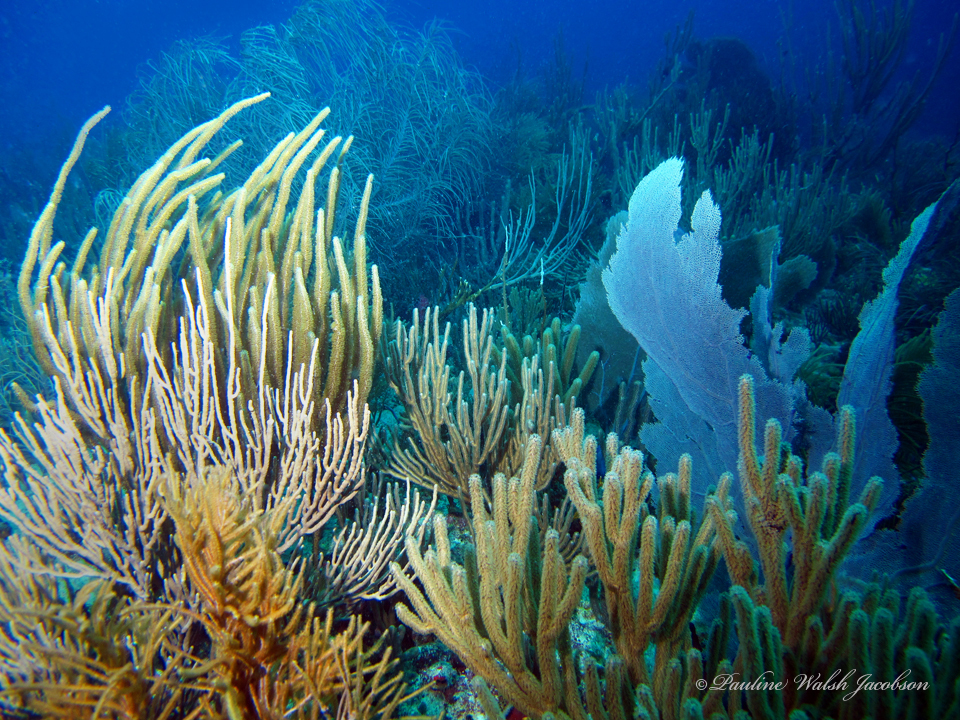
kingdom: Animalia
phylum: Cnidaria
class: Anthozoa
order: Malacalcyonacea
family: Plexauridae
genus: Plexaura
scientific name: Plexaura homomalla
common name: Black sea rod
